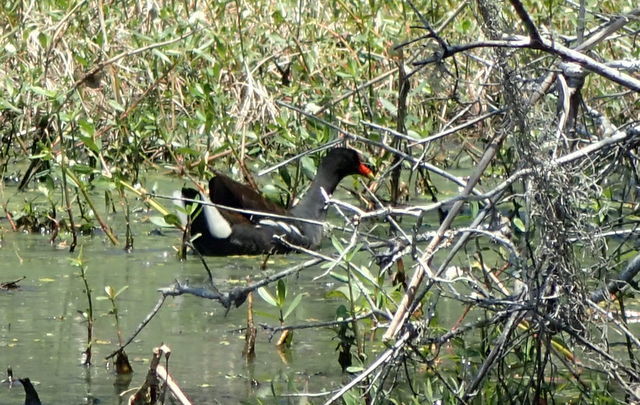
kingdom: Animalia
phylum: Chordata
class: Aves
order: Gruiformes
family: Rallidae
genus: Gallinula
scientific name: Gallinula chloropus
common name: Common moorhen
